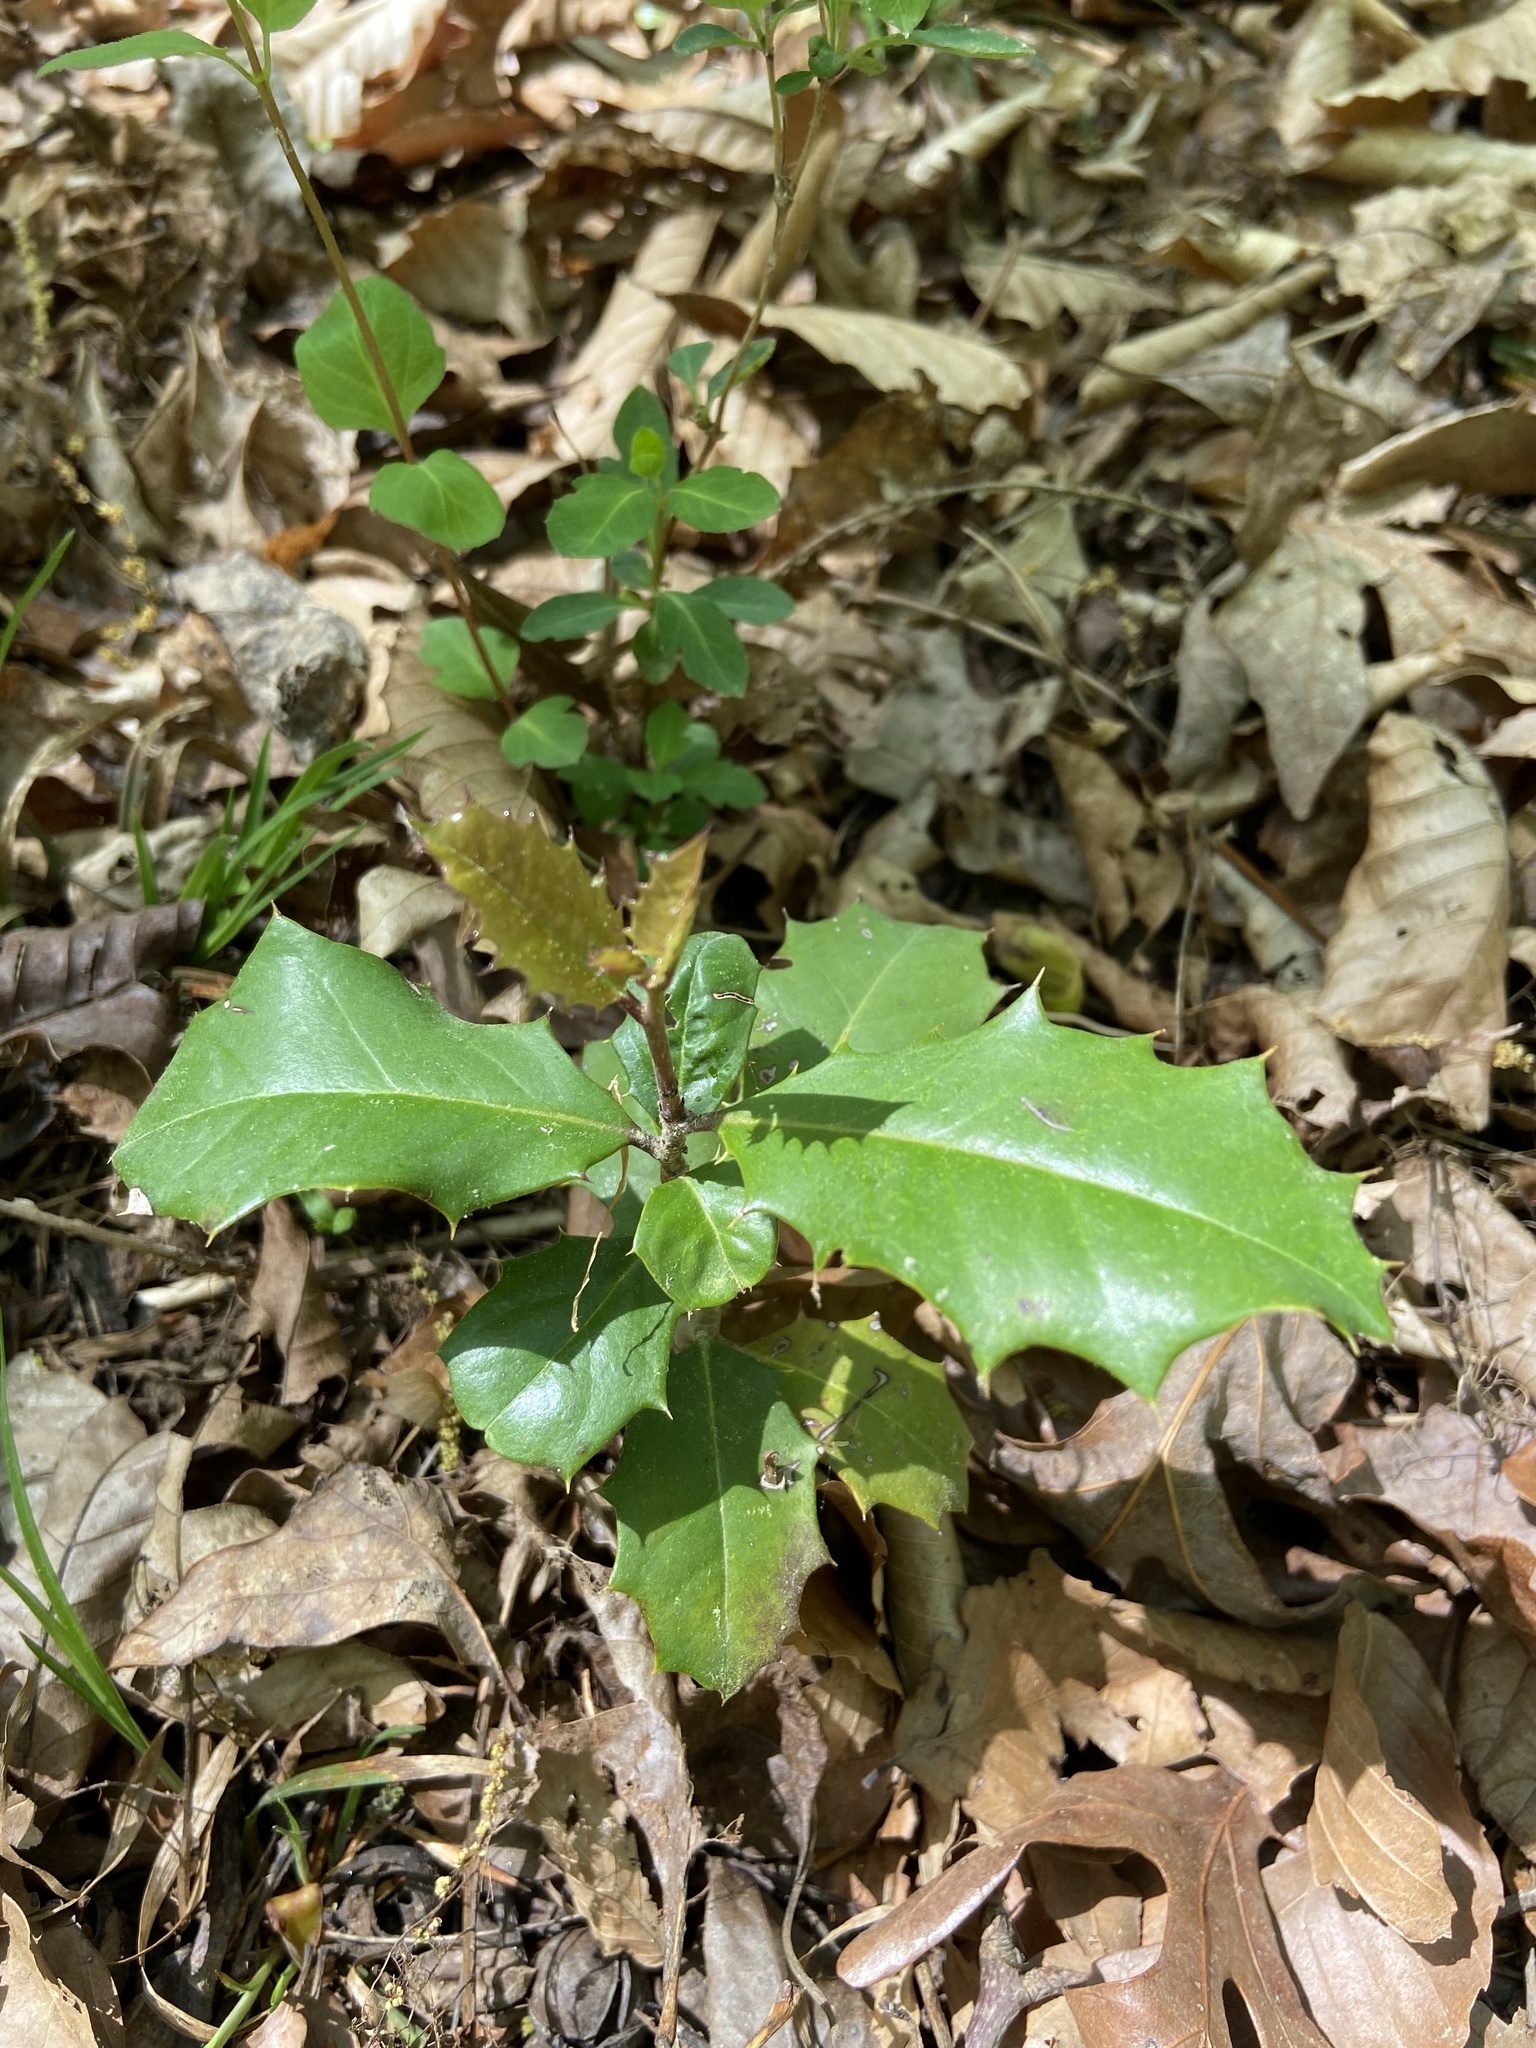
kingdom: Plantae
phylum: Tracheophyta
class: Magnoliopsida
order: Aquifoliales
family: Aquifoliaceae
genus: Ilex
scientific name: Ilex opaca
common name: American holly
